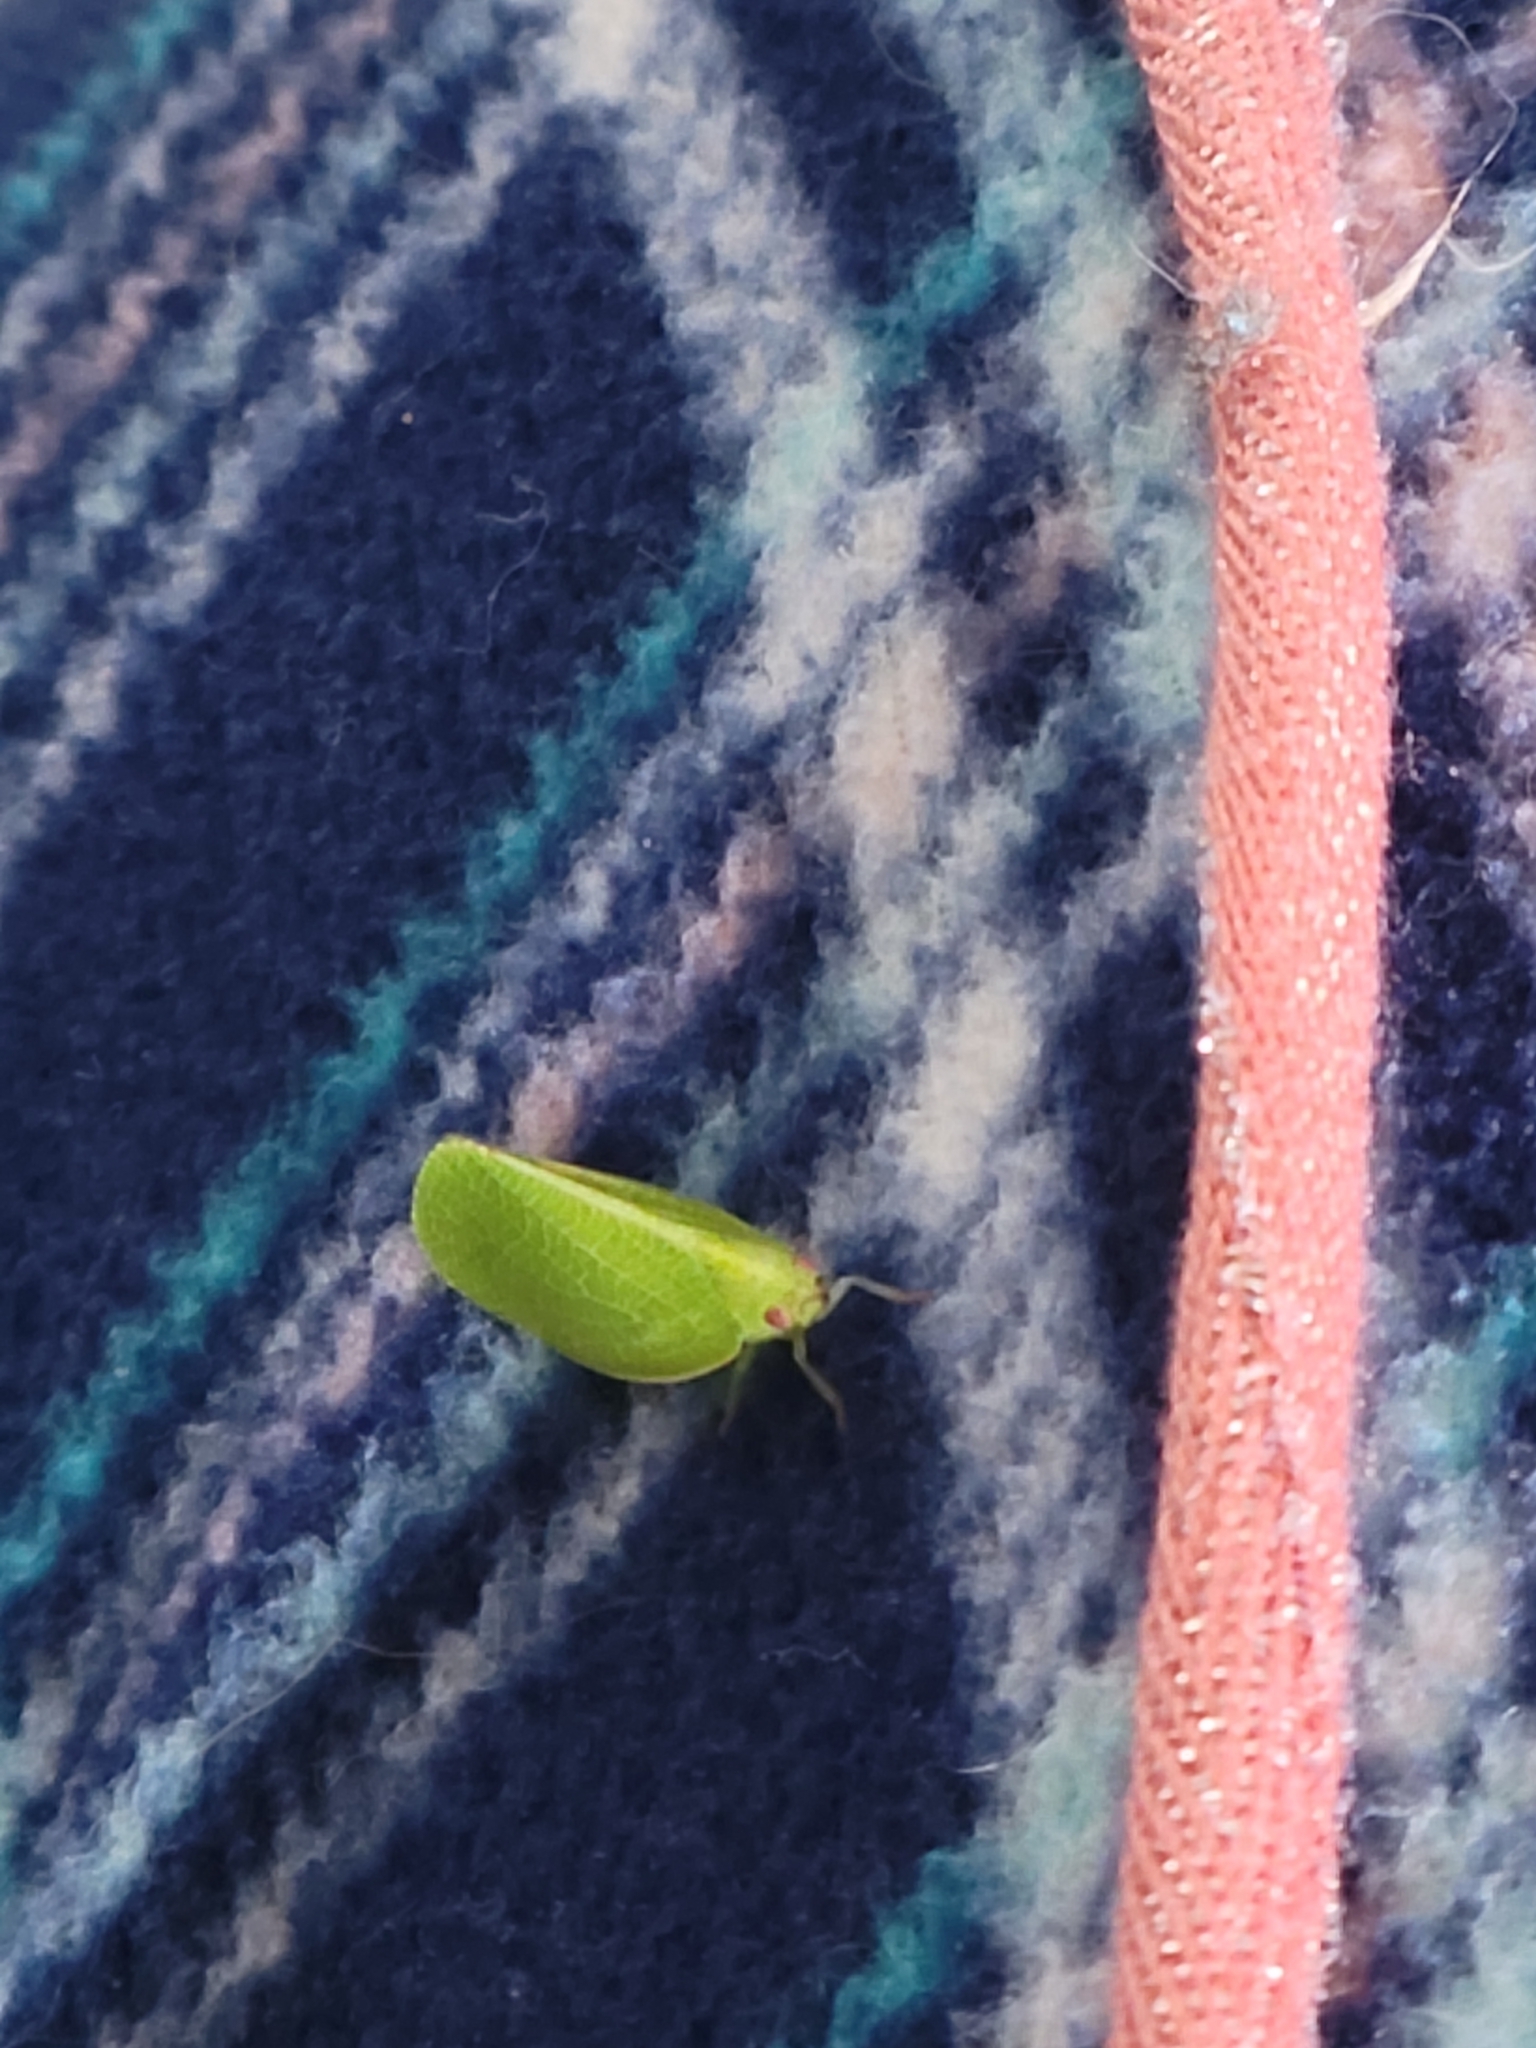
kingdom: Animalia
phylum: Arthropoda
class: Insecta
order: Hemiptera
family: Acanaloniidae
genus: Acanalonia
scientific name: Acanalonia conica
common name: Green cone-headed planthopper
